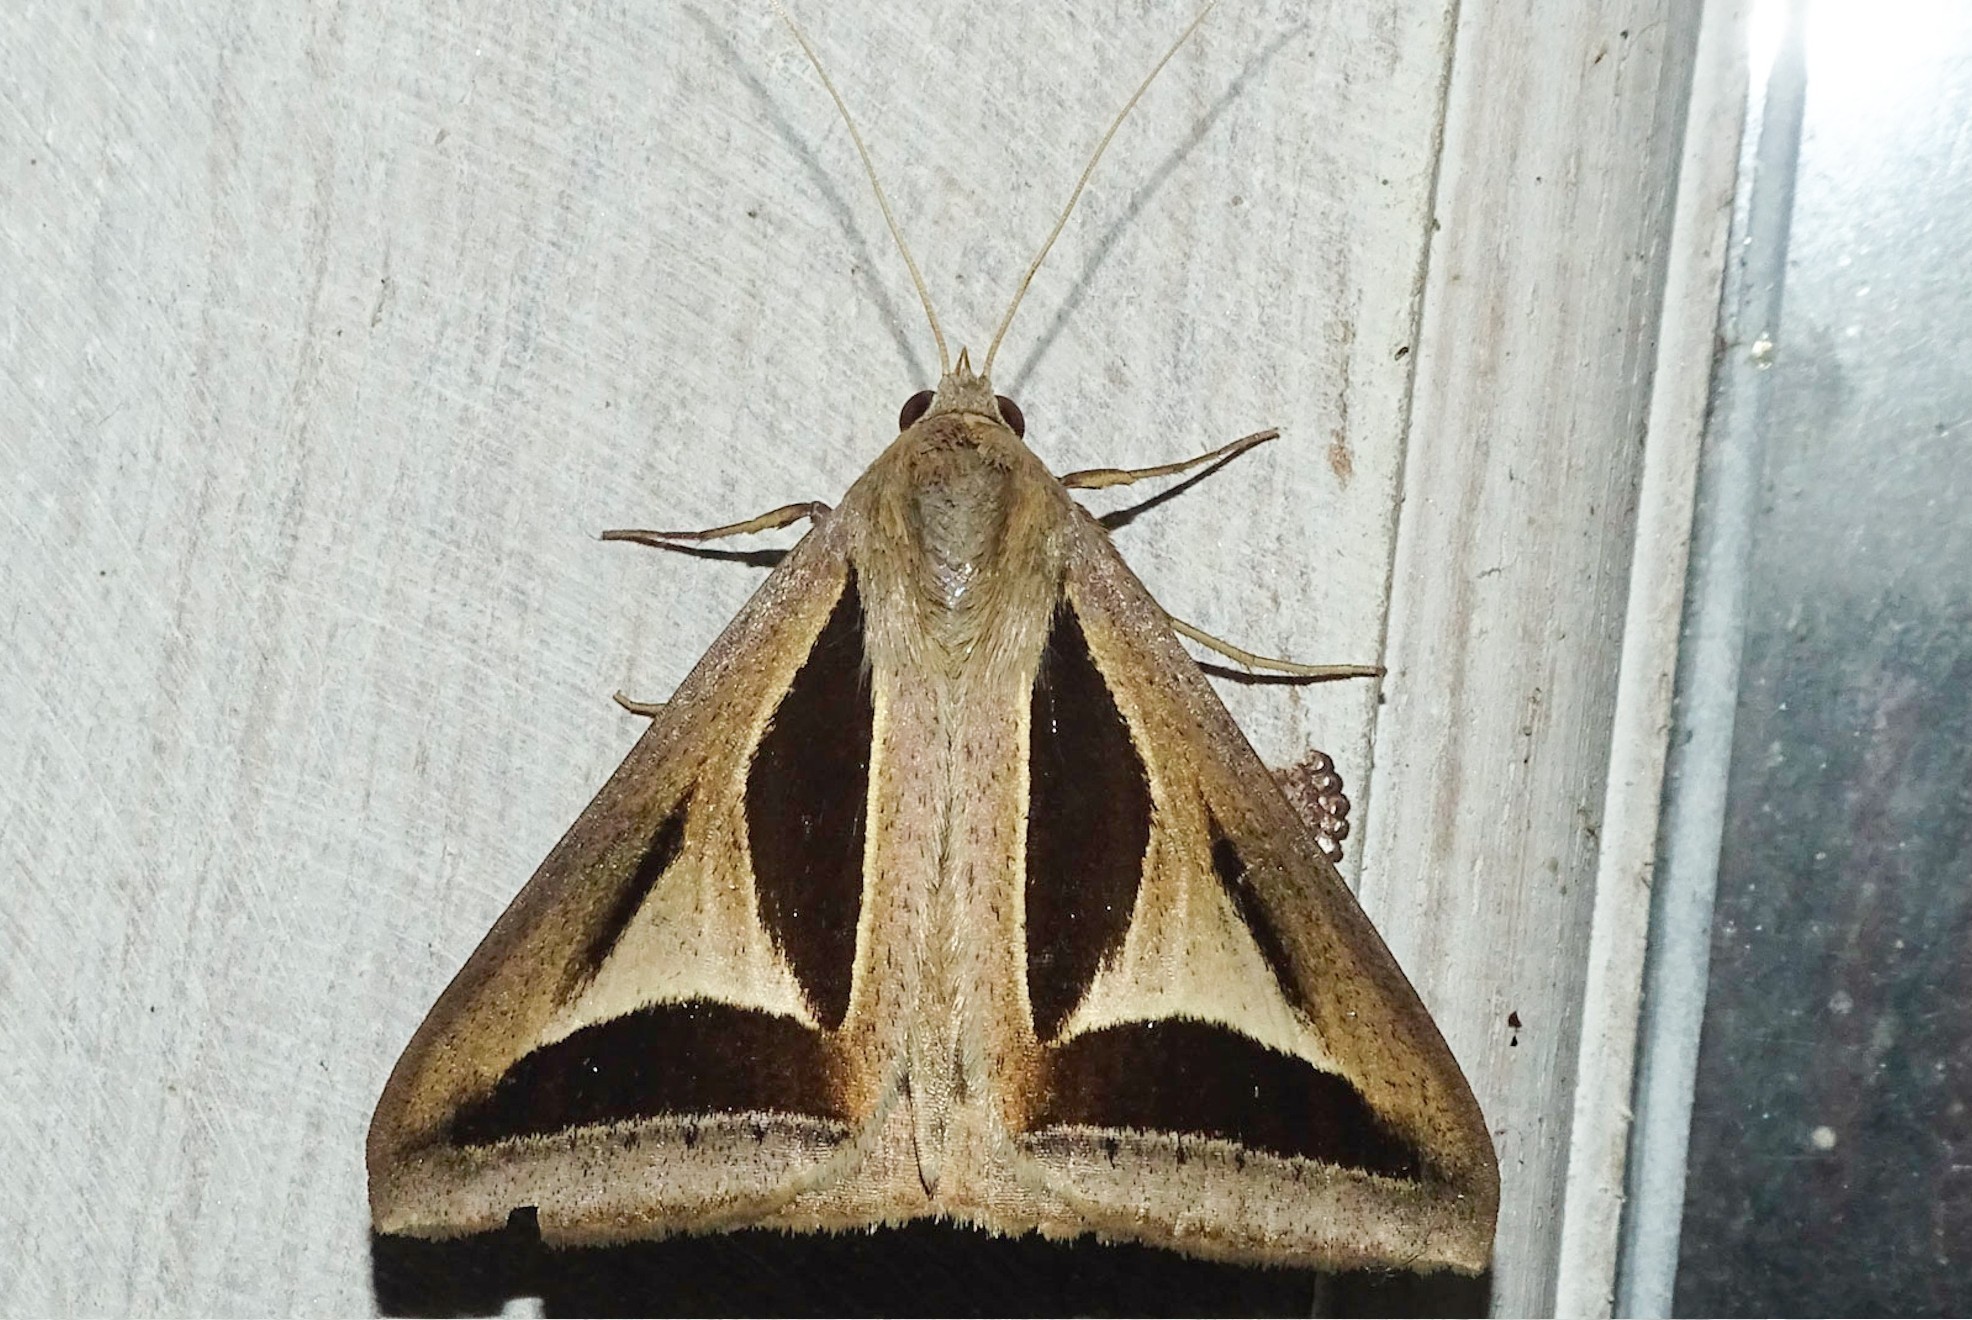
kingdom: Animalia
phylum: Arthropoda
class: Insecta
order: Lepidoptera
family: Erebidae
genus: Trigonodes
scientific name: Trigonodes cephise
